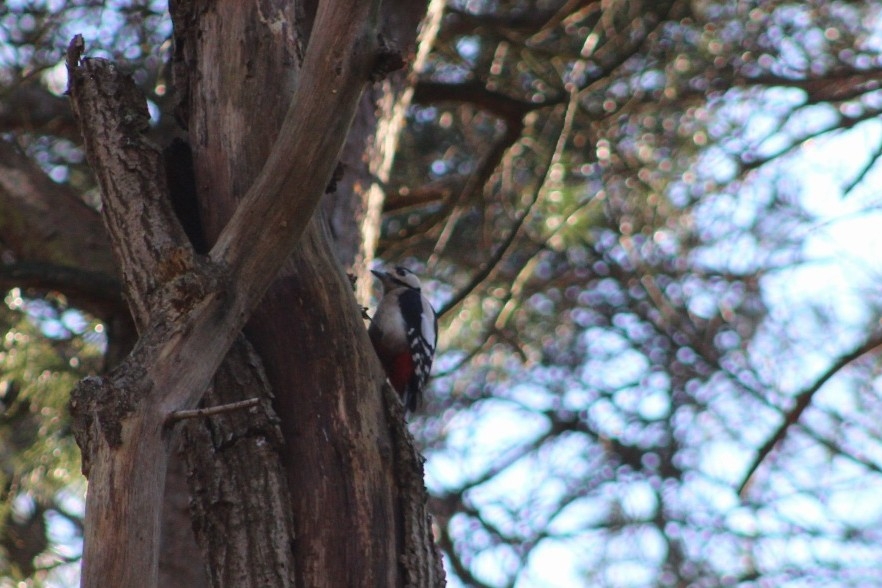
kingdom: Animalia
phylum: Chordata
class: Aves
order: Piciformes
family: Picidae
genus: Dendrocopos
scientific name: Dendrocopos major
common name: Great spotted woodpecker
